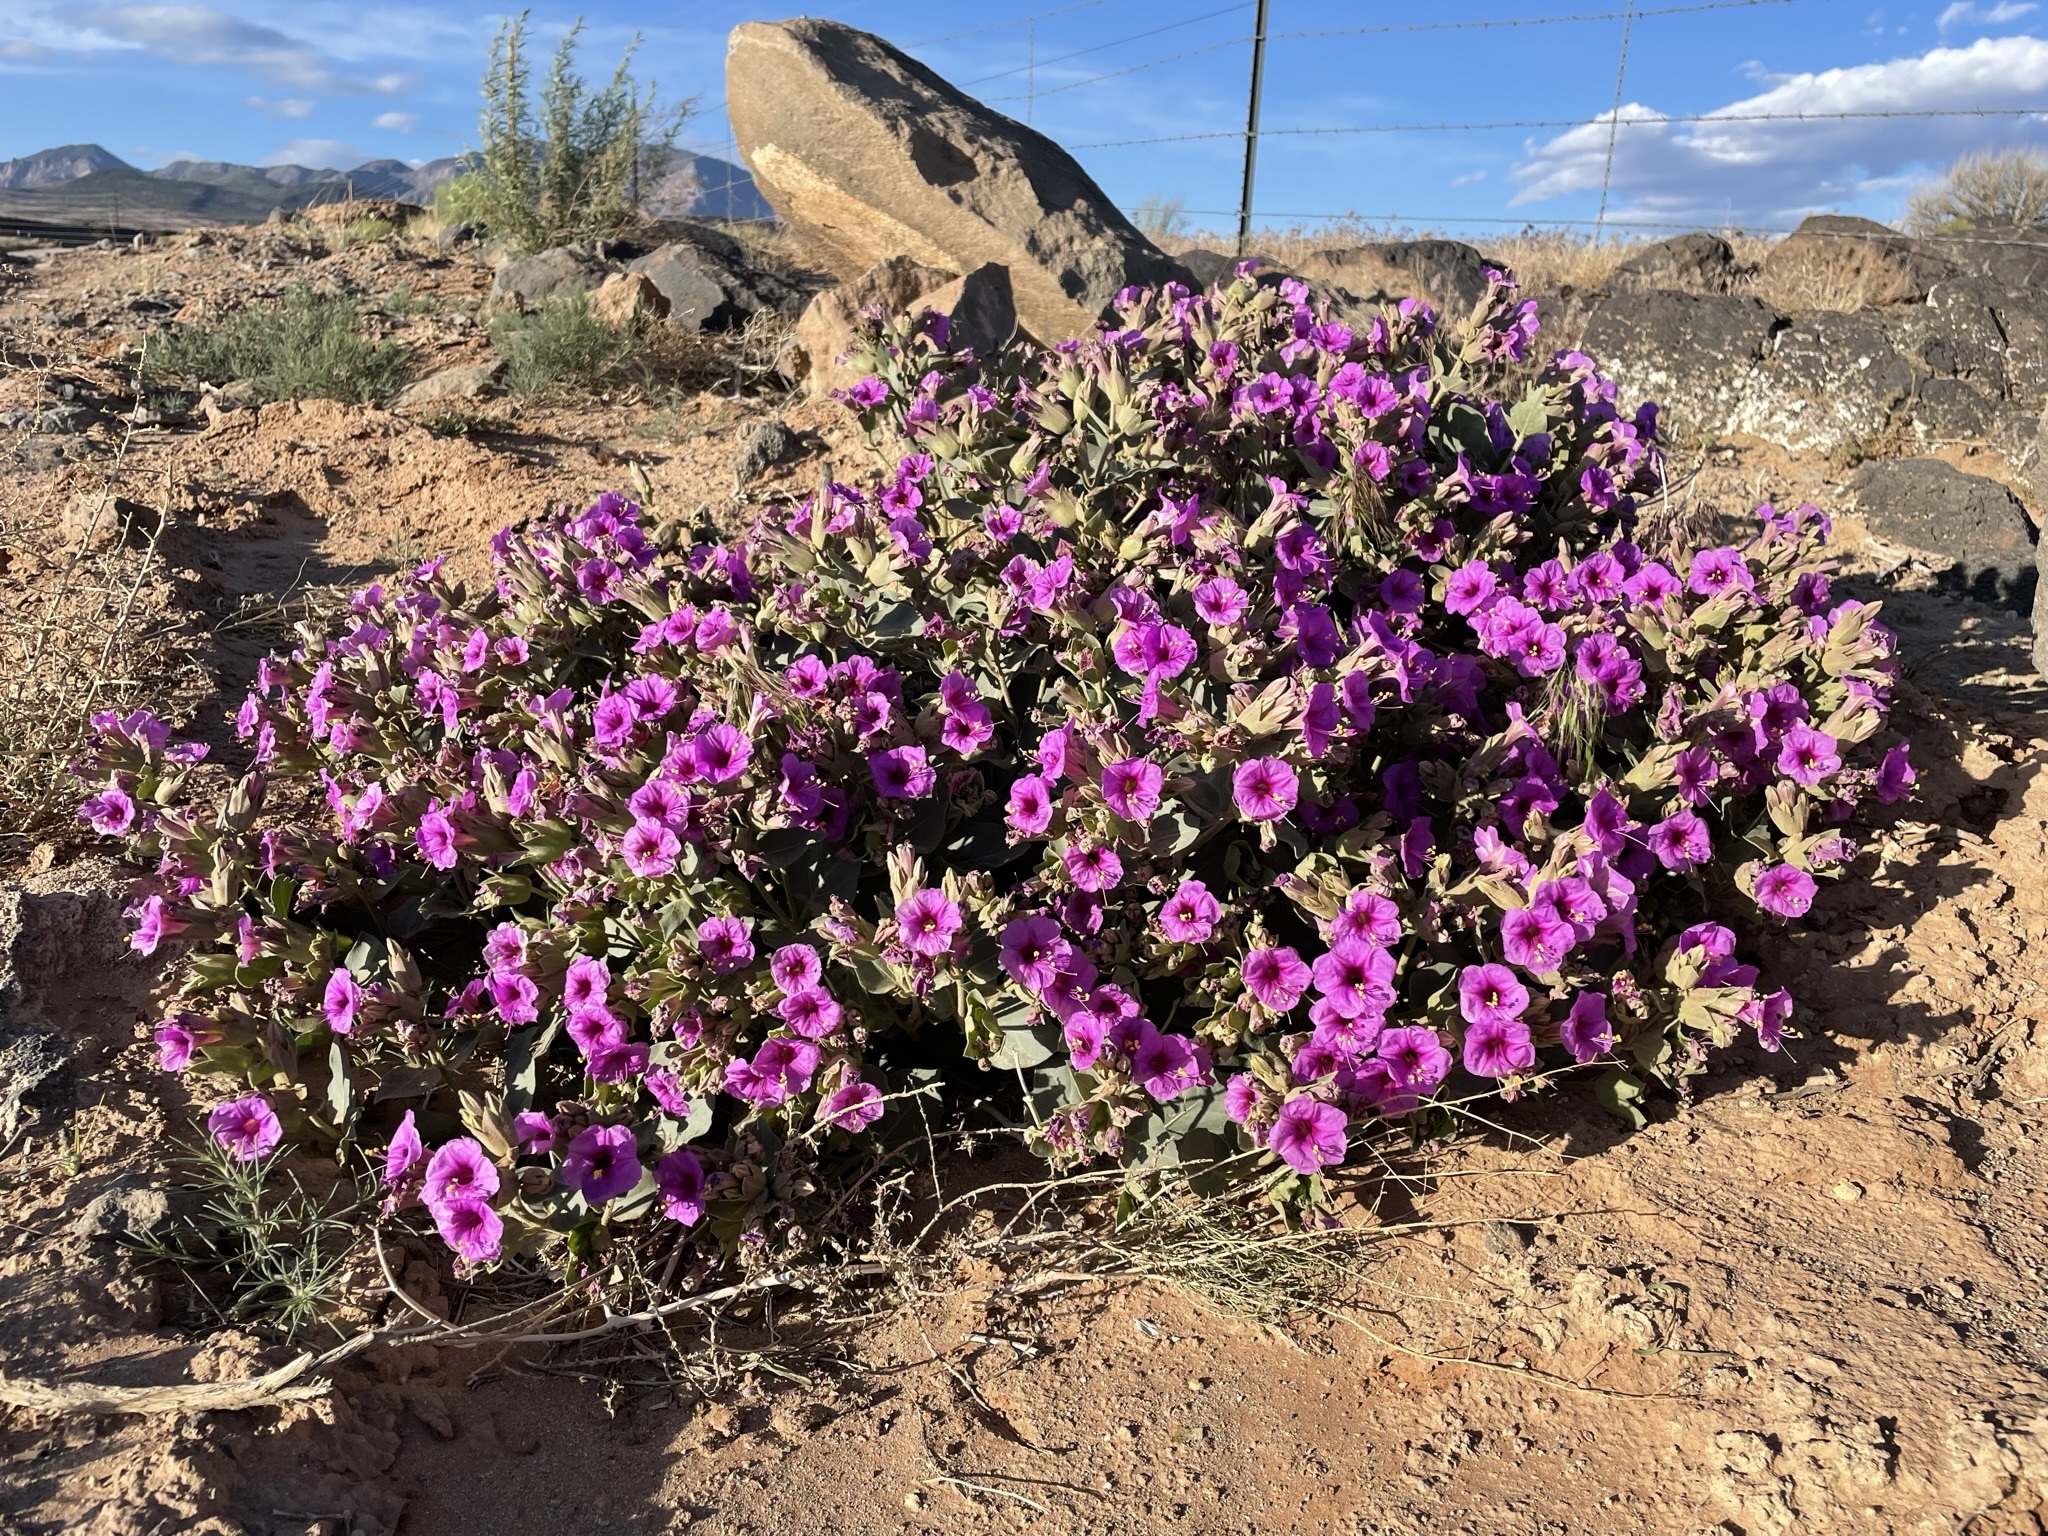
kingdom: Plantae
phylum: Tracheophyta
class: Magnoliopsida
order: Caryophyllales
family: Nyctaginaceae
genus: Mirabilis
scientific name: Mirabilis multiflora
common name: Froebel's four-o'clock
